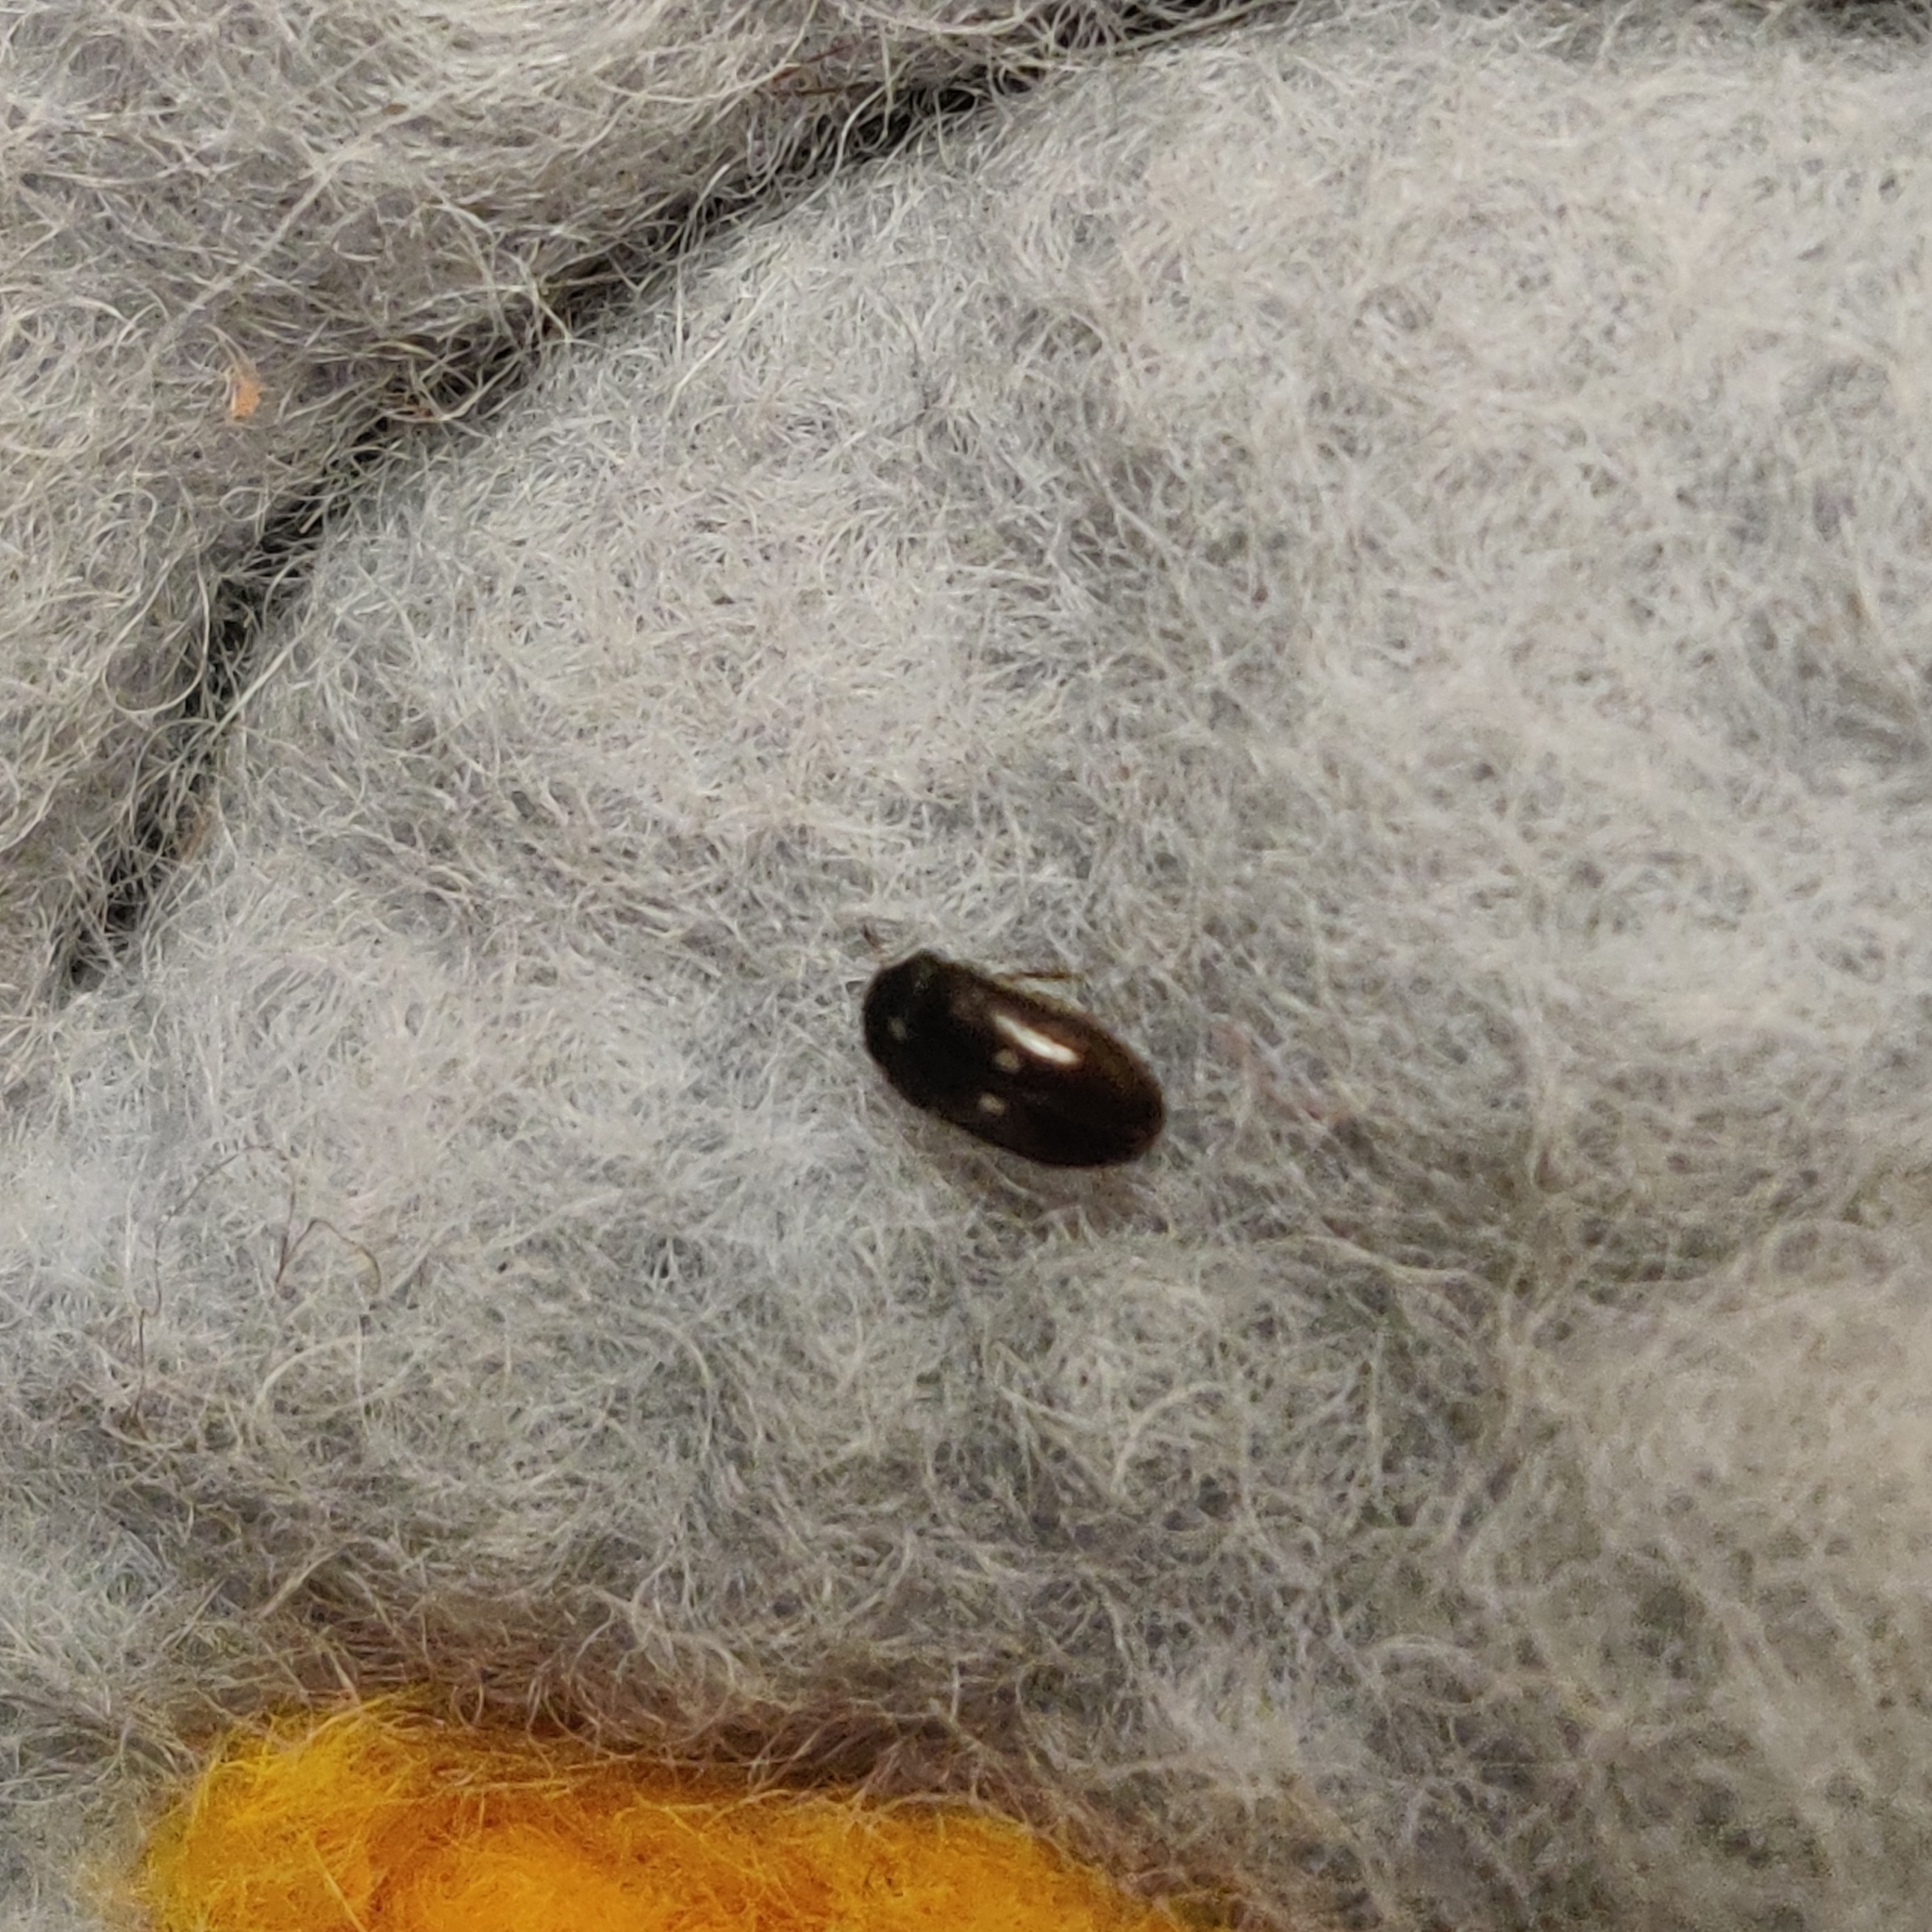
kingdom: Animalia
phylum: Arthropoda
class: Insecta
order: Coleoptera
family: Dermestidae
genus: Attagenus
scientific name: Attagenus pellio
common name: Two-spotted carpet beetle
